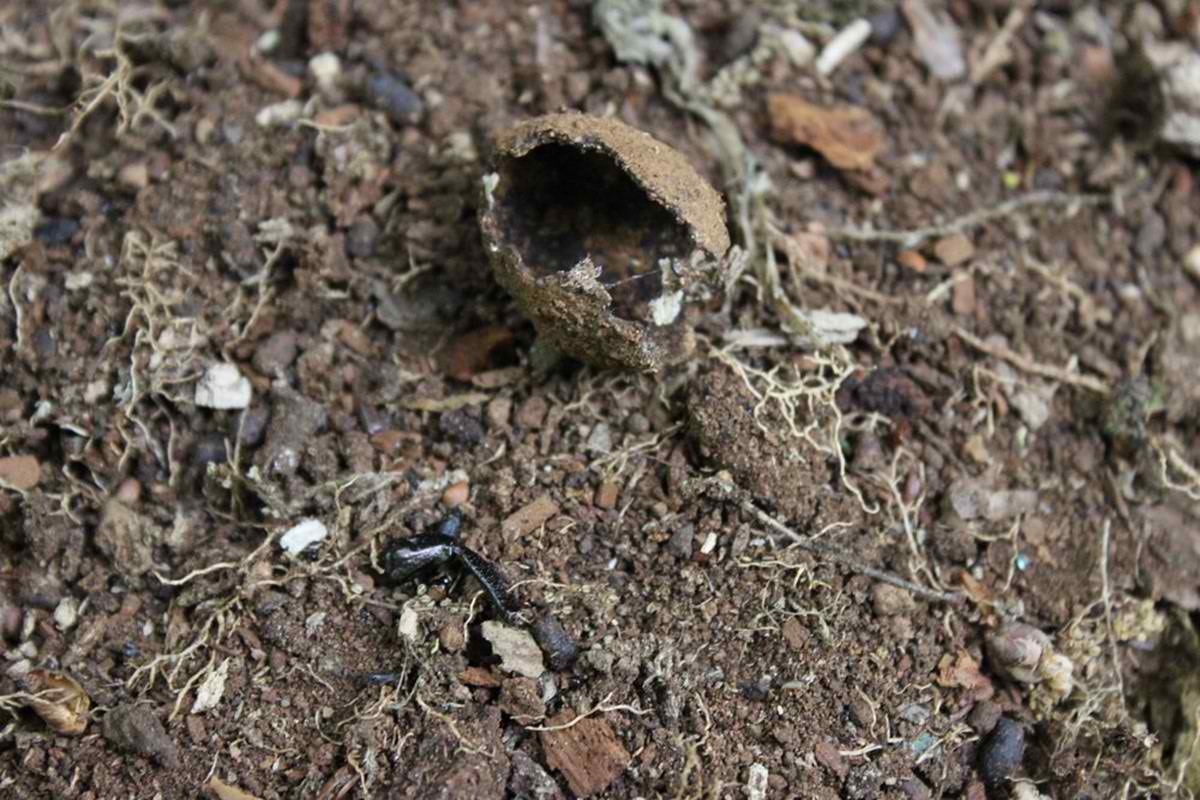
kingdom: Animalia
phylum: Arthropoda
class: Insecta
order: Coleoptera
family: Scarabaeidae
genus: Osmoderma
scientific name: Osmoderma barnabita
